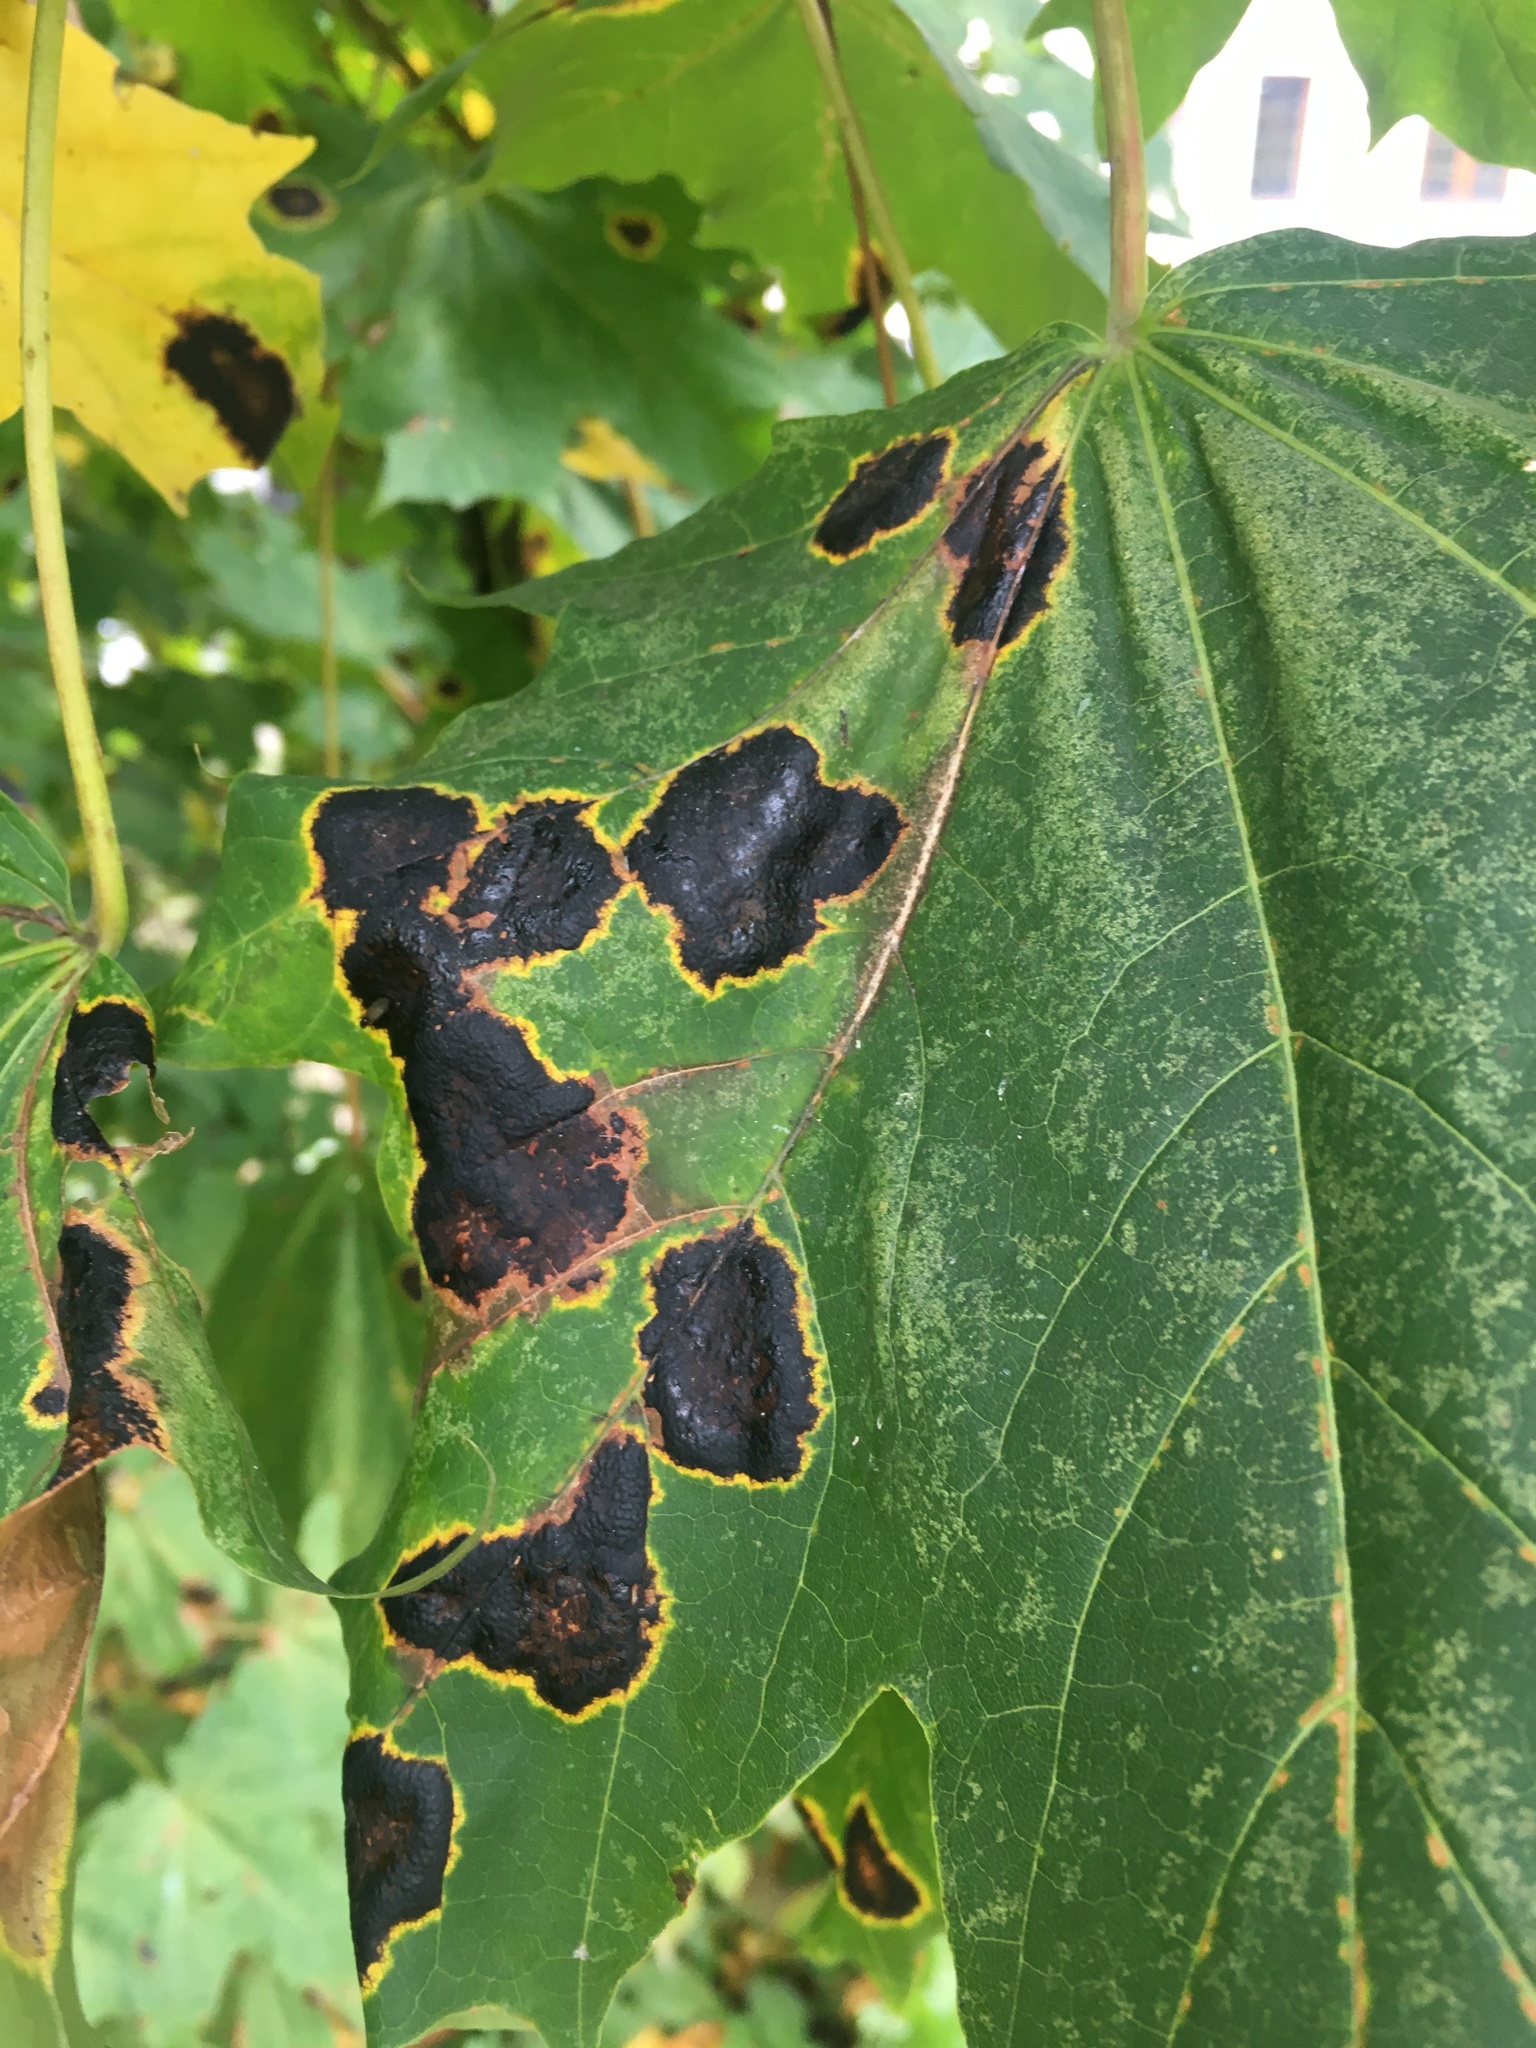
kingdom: Fungi
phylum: Ascomycota
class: Leotiomycetes
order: Rhytismatales
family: Rhytismataceae
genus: Rhytisma
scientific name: Rhytisma acerinum
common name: European tar spot
